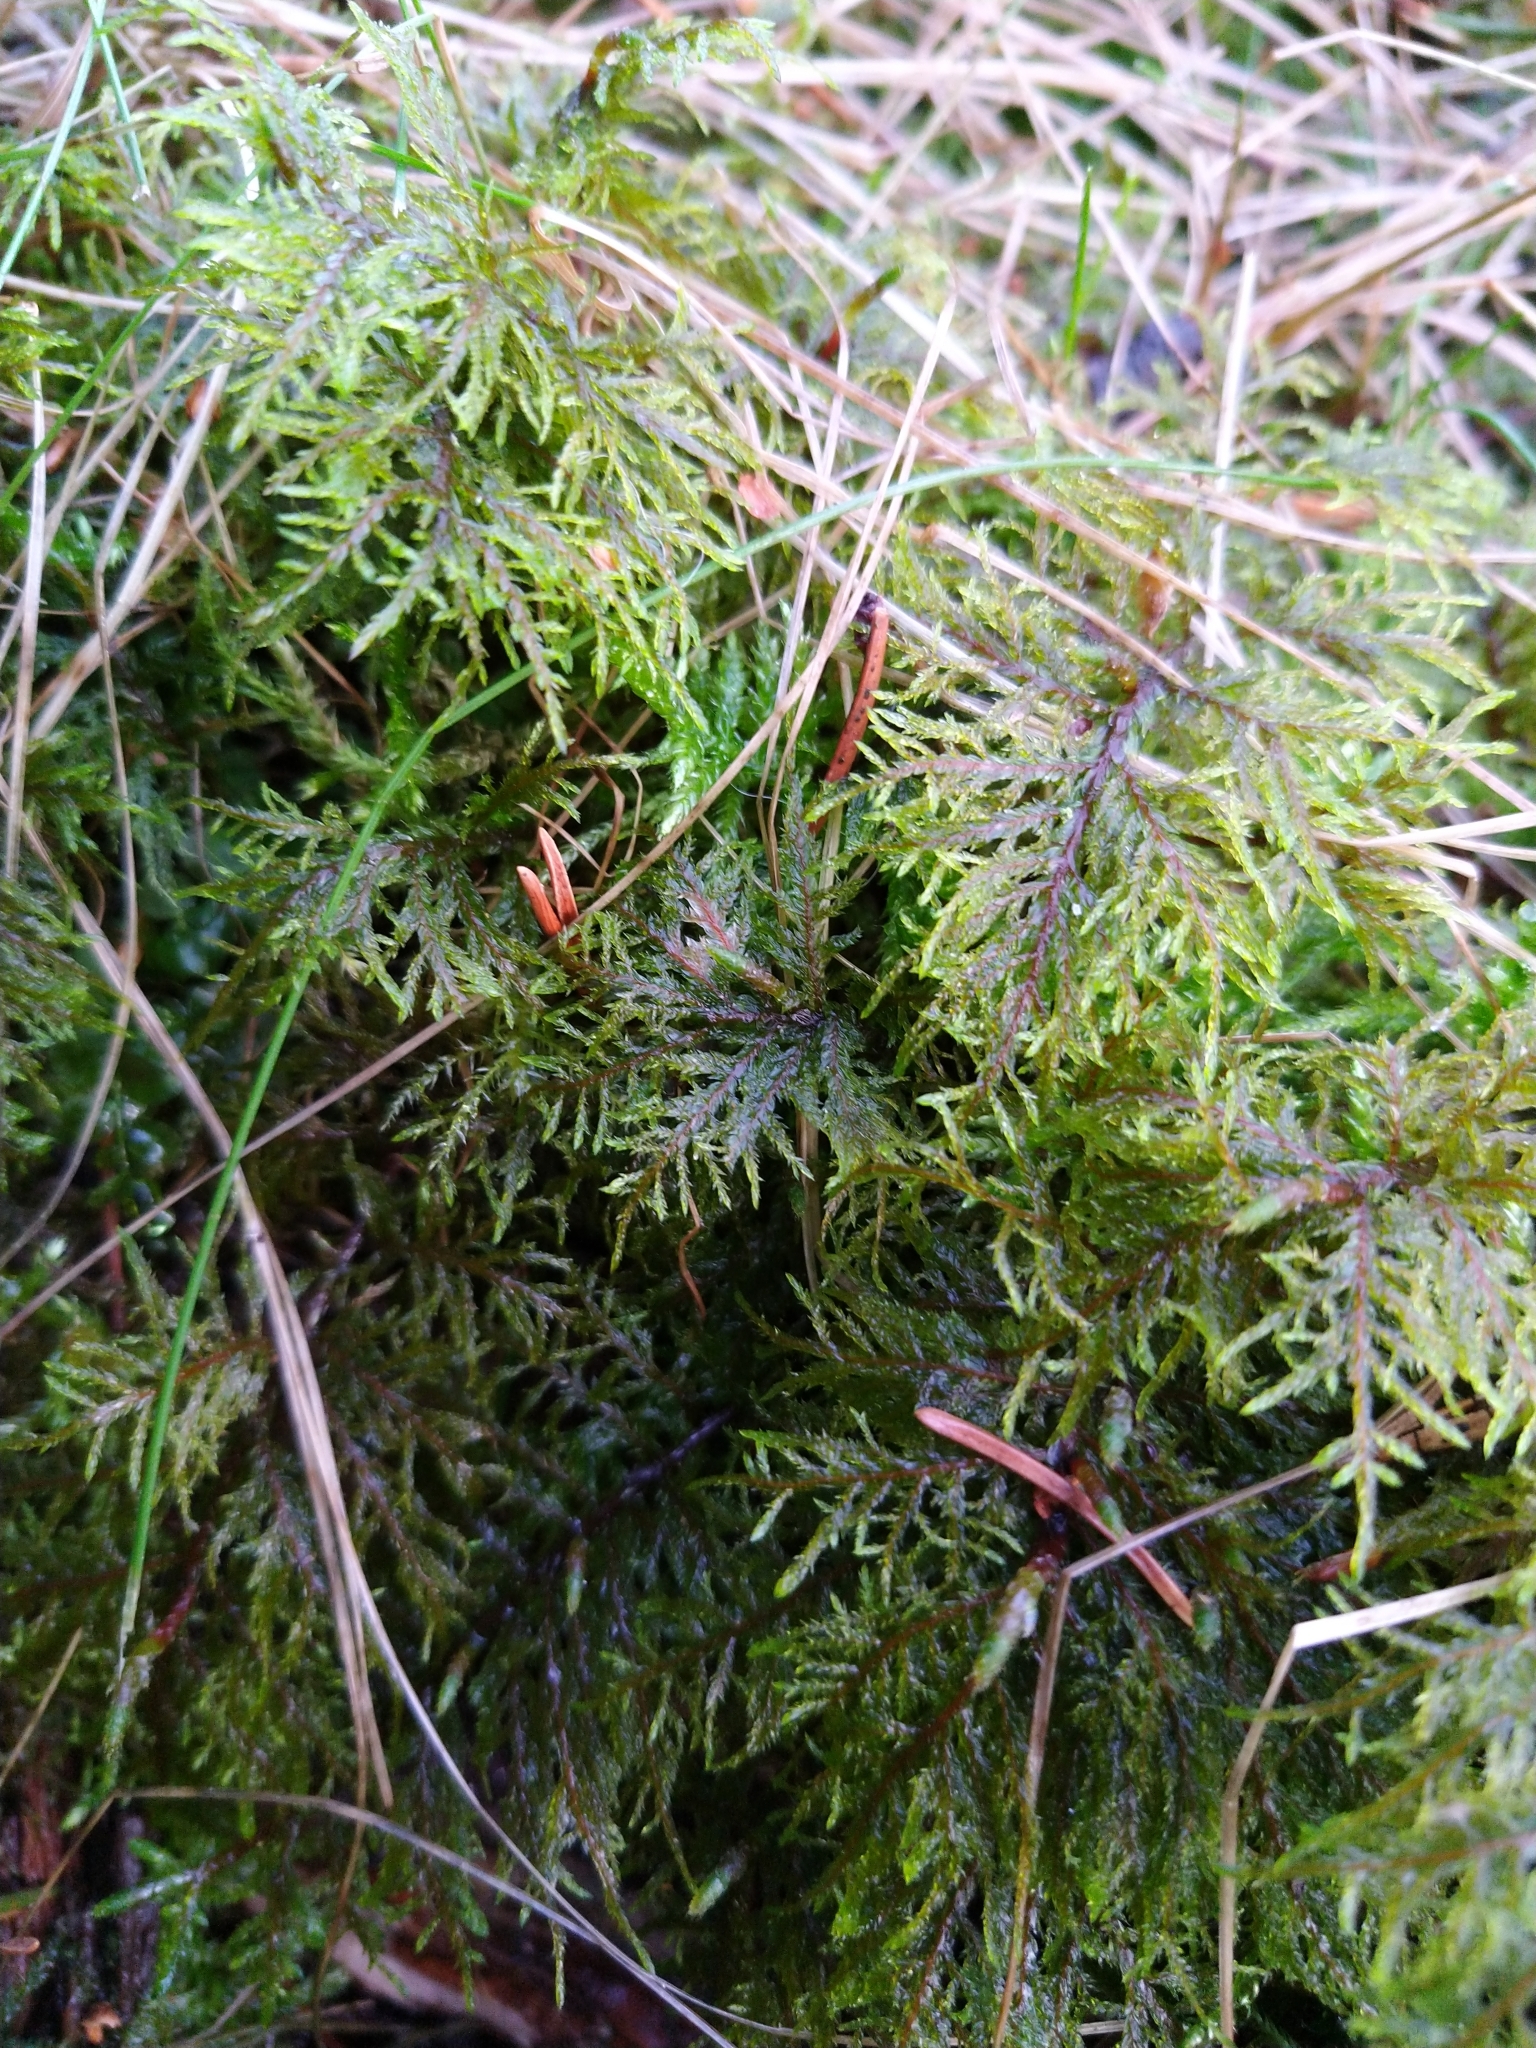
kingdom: Plantae
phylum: Bryophyta
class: Bryopsida
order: Hypnales
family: Hylocomiaceae
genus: Hylocomium
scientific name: Hylocomium splendens
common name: Stairstep moss
